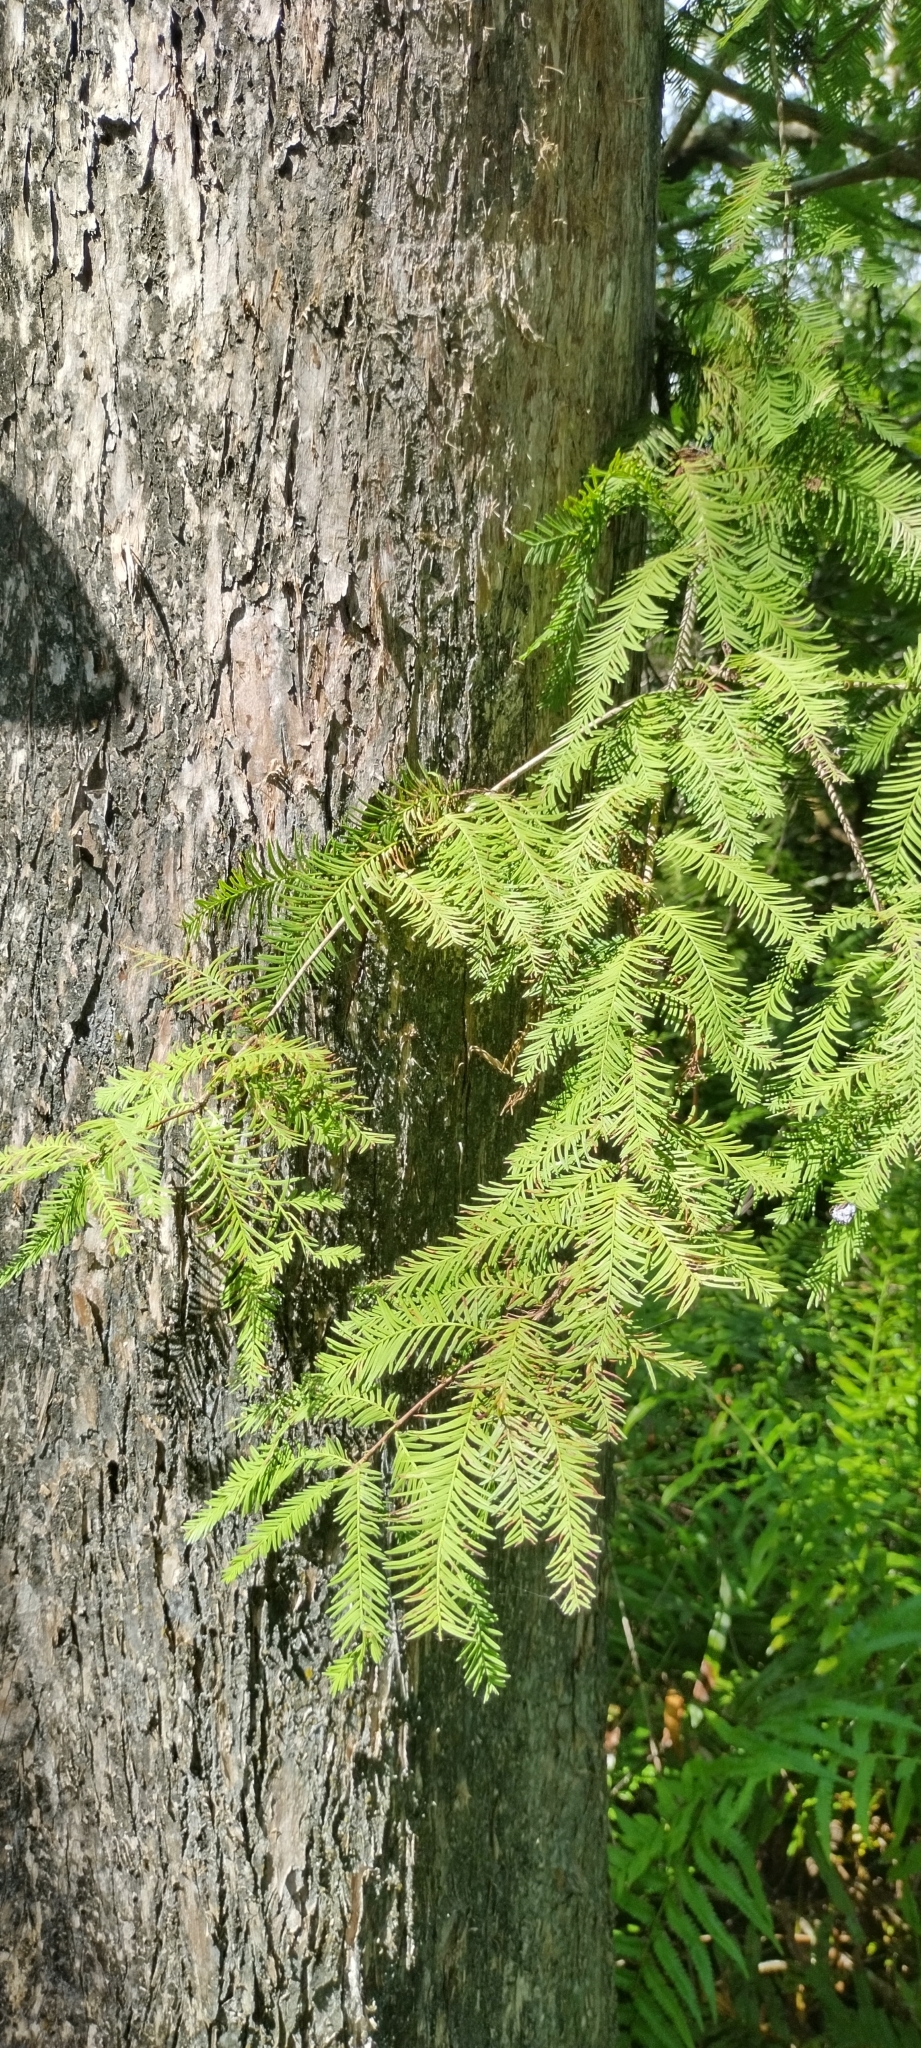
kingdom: Plantae
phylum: Tracheophyta
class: Pinopsida
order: Pinales
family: Cupressaceae
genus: Taxodium
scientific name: Taxodium distichum
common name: Bald cypress
